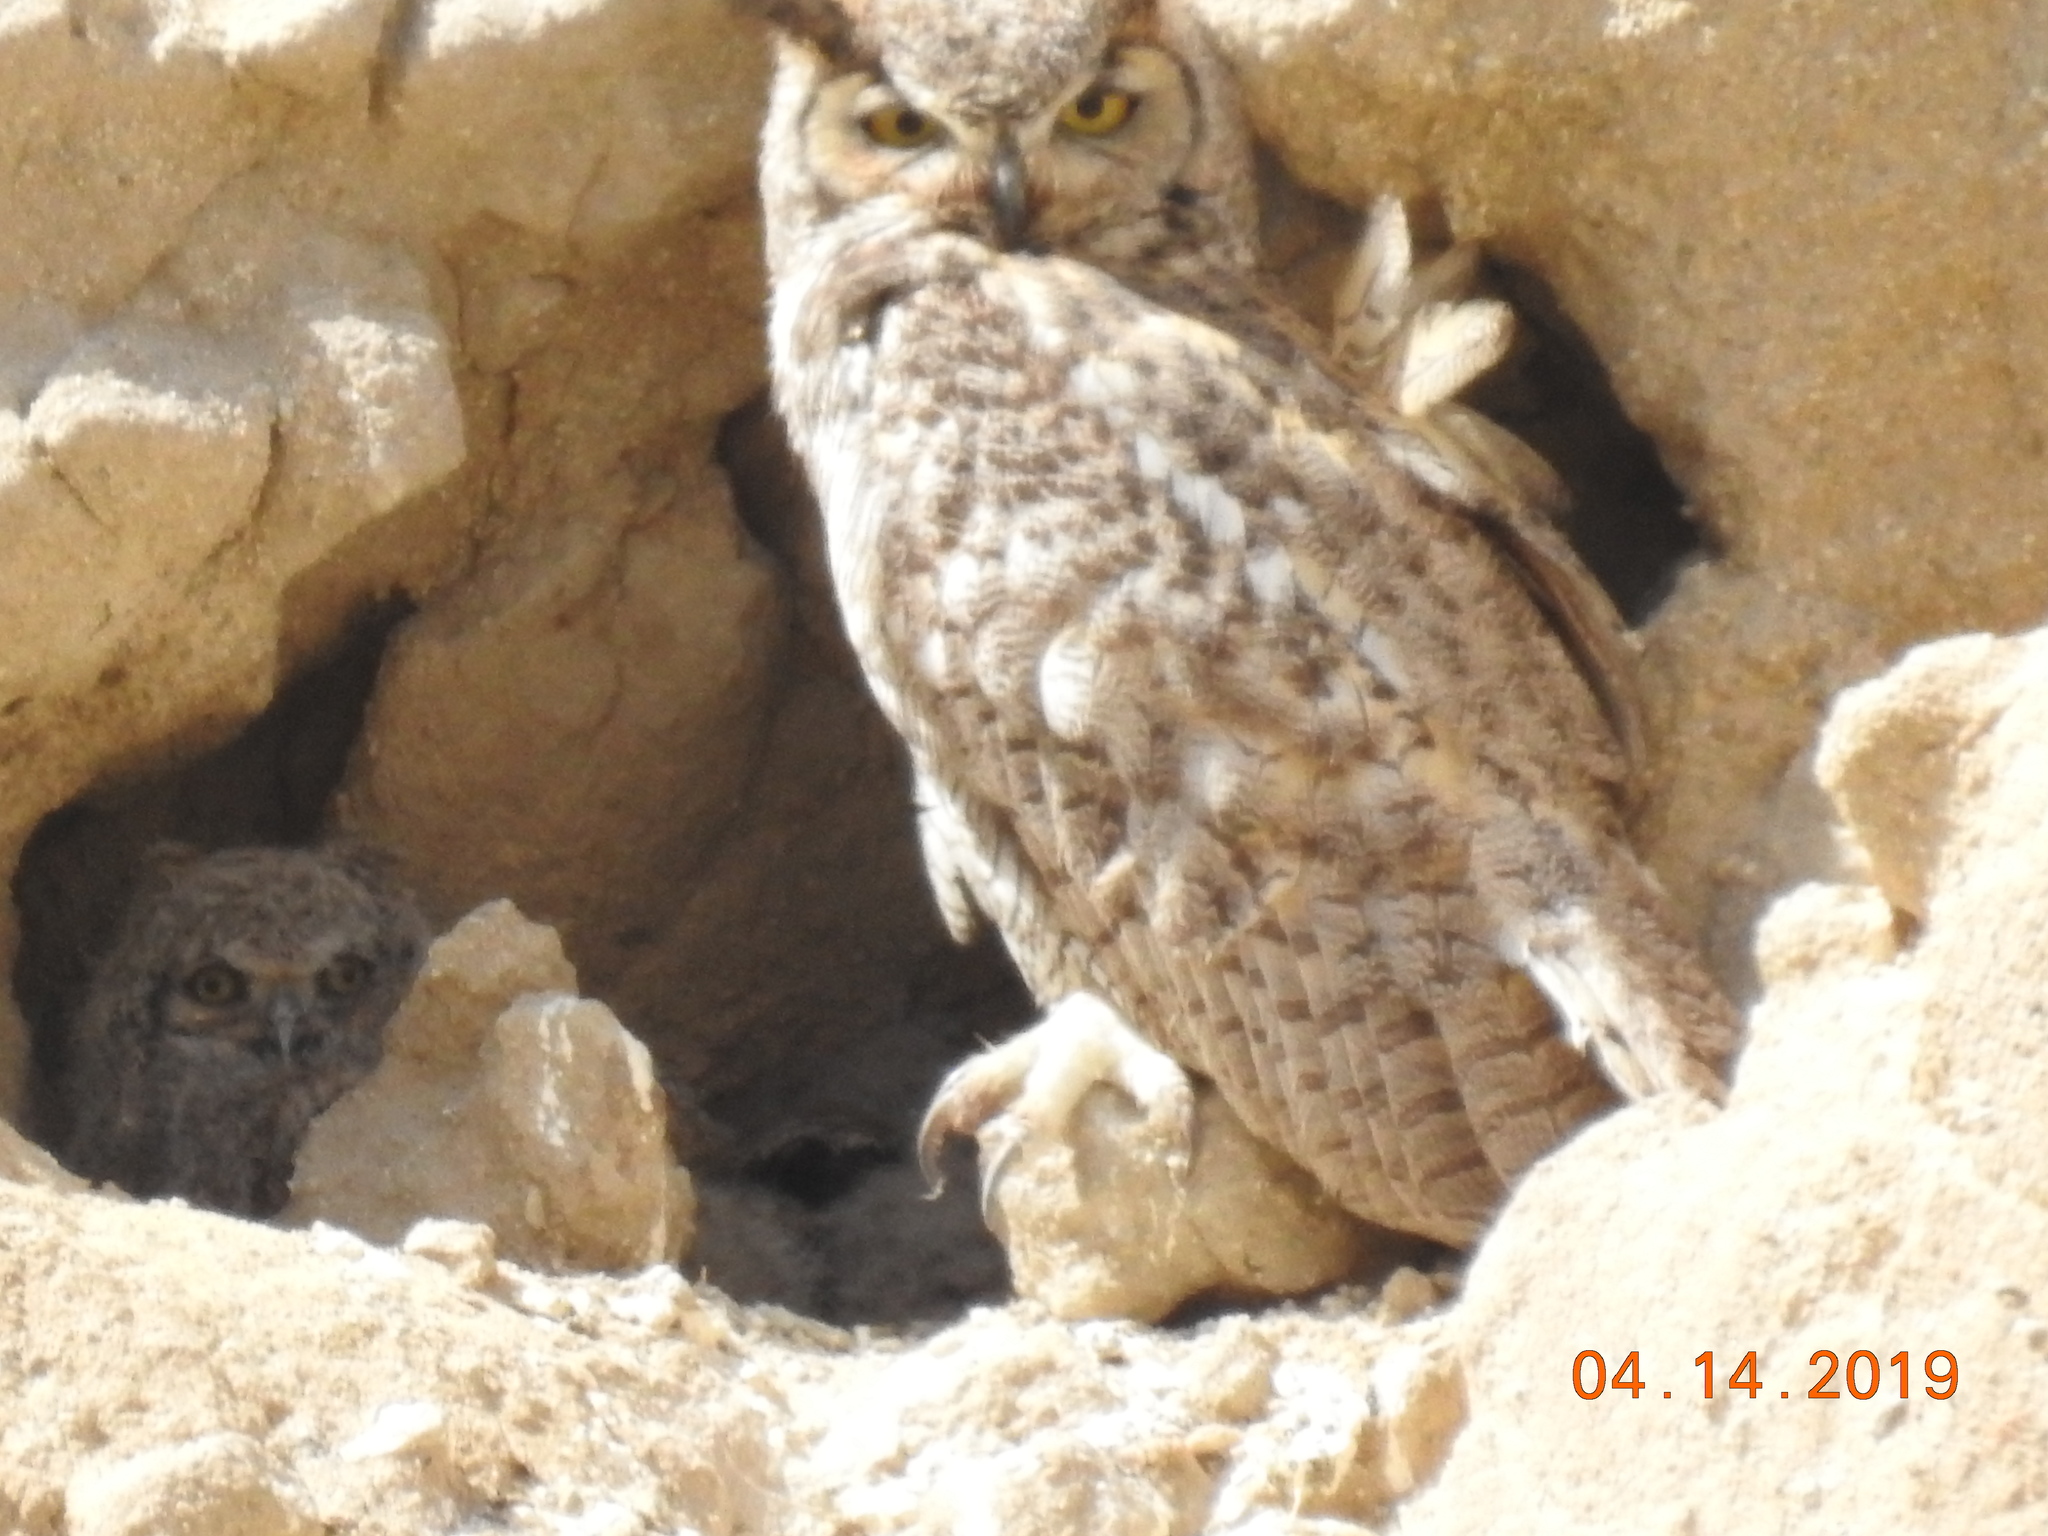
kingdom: Animalia
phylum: Chordata
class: Aves
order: Strigiformes
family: Strigidae
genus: Bubo
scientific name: Bubo virginianus
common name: Great horned owl
